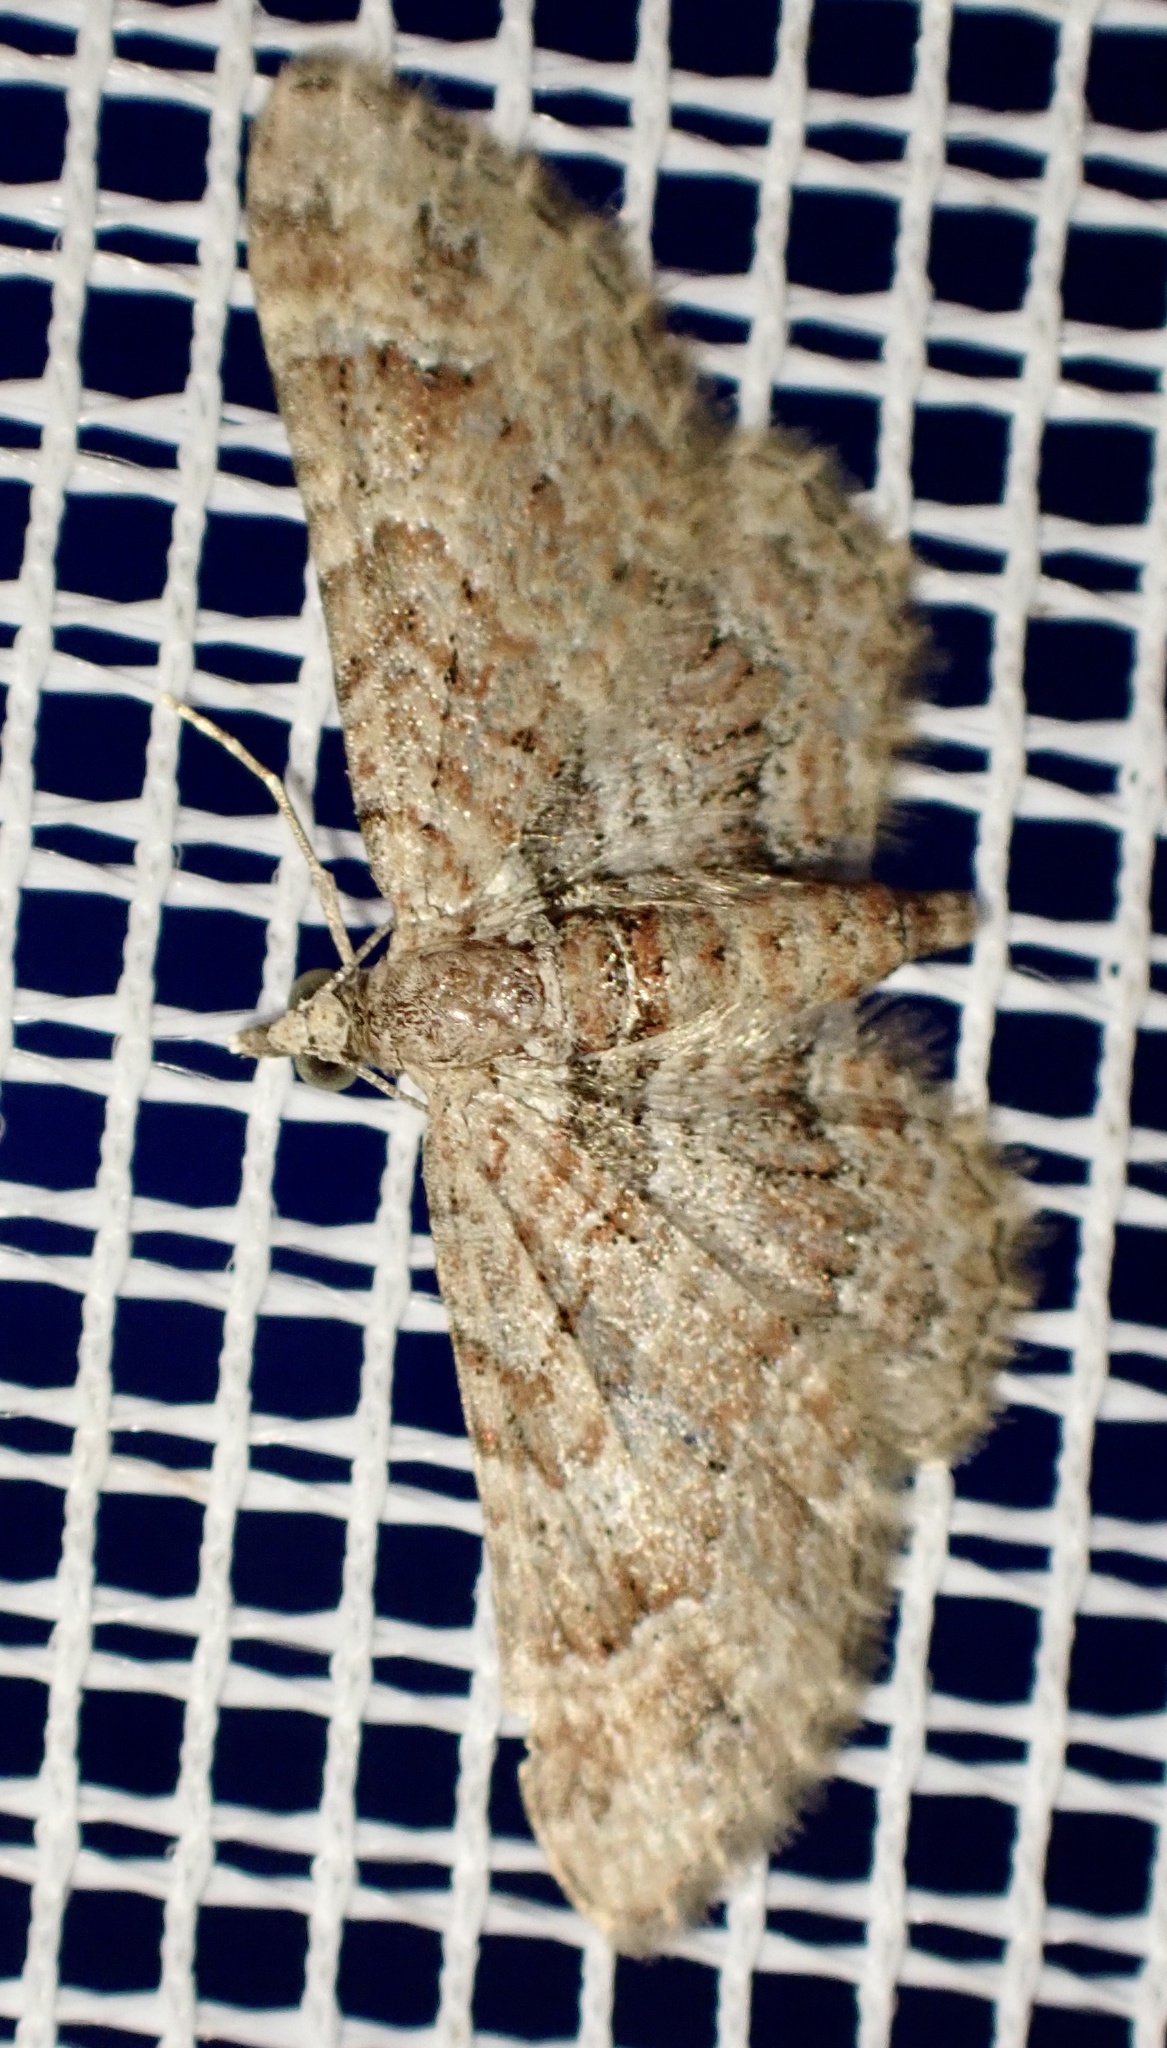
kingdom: Animalia
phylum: Arthropoda
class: Insecta
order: Lepidoptera
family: Geometridae
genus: Gymnoscelis
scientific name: Gymnoscelis rufifasciata
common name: Double-striped pug
